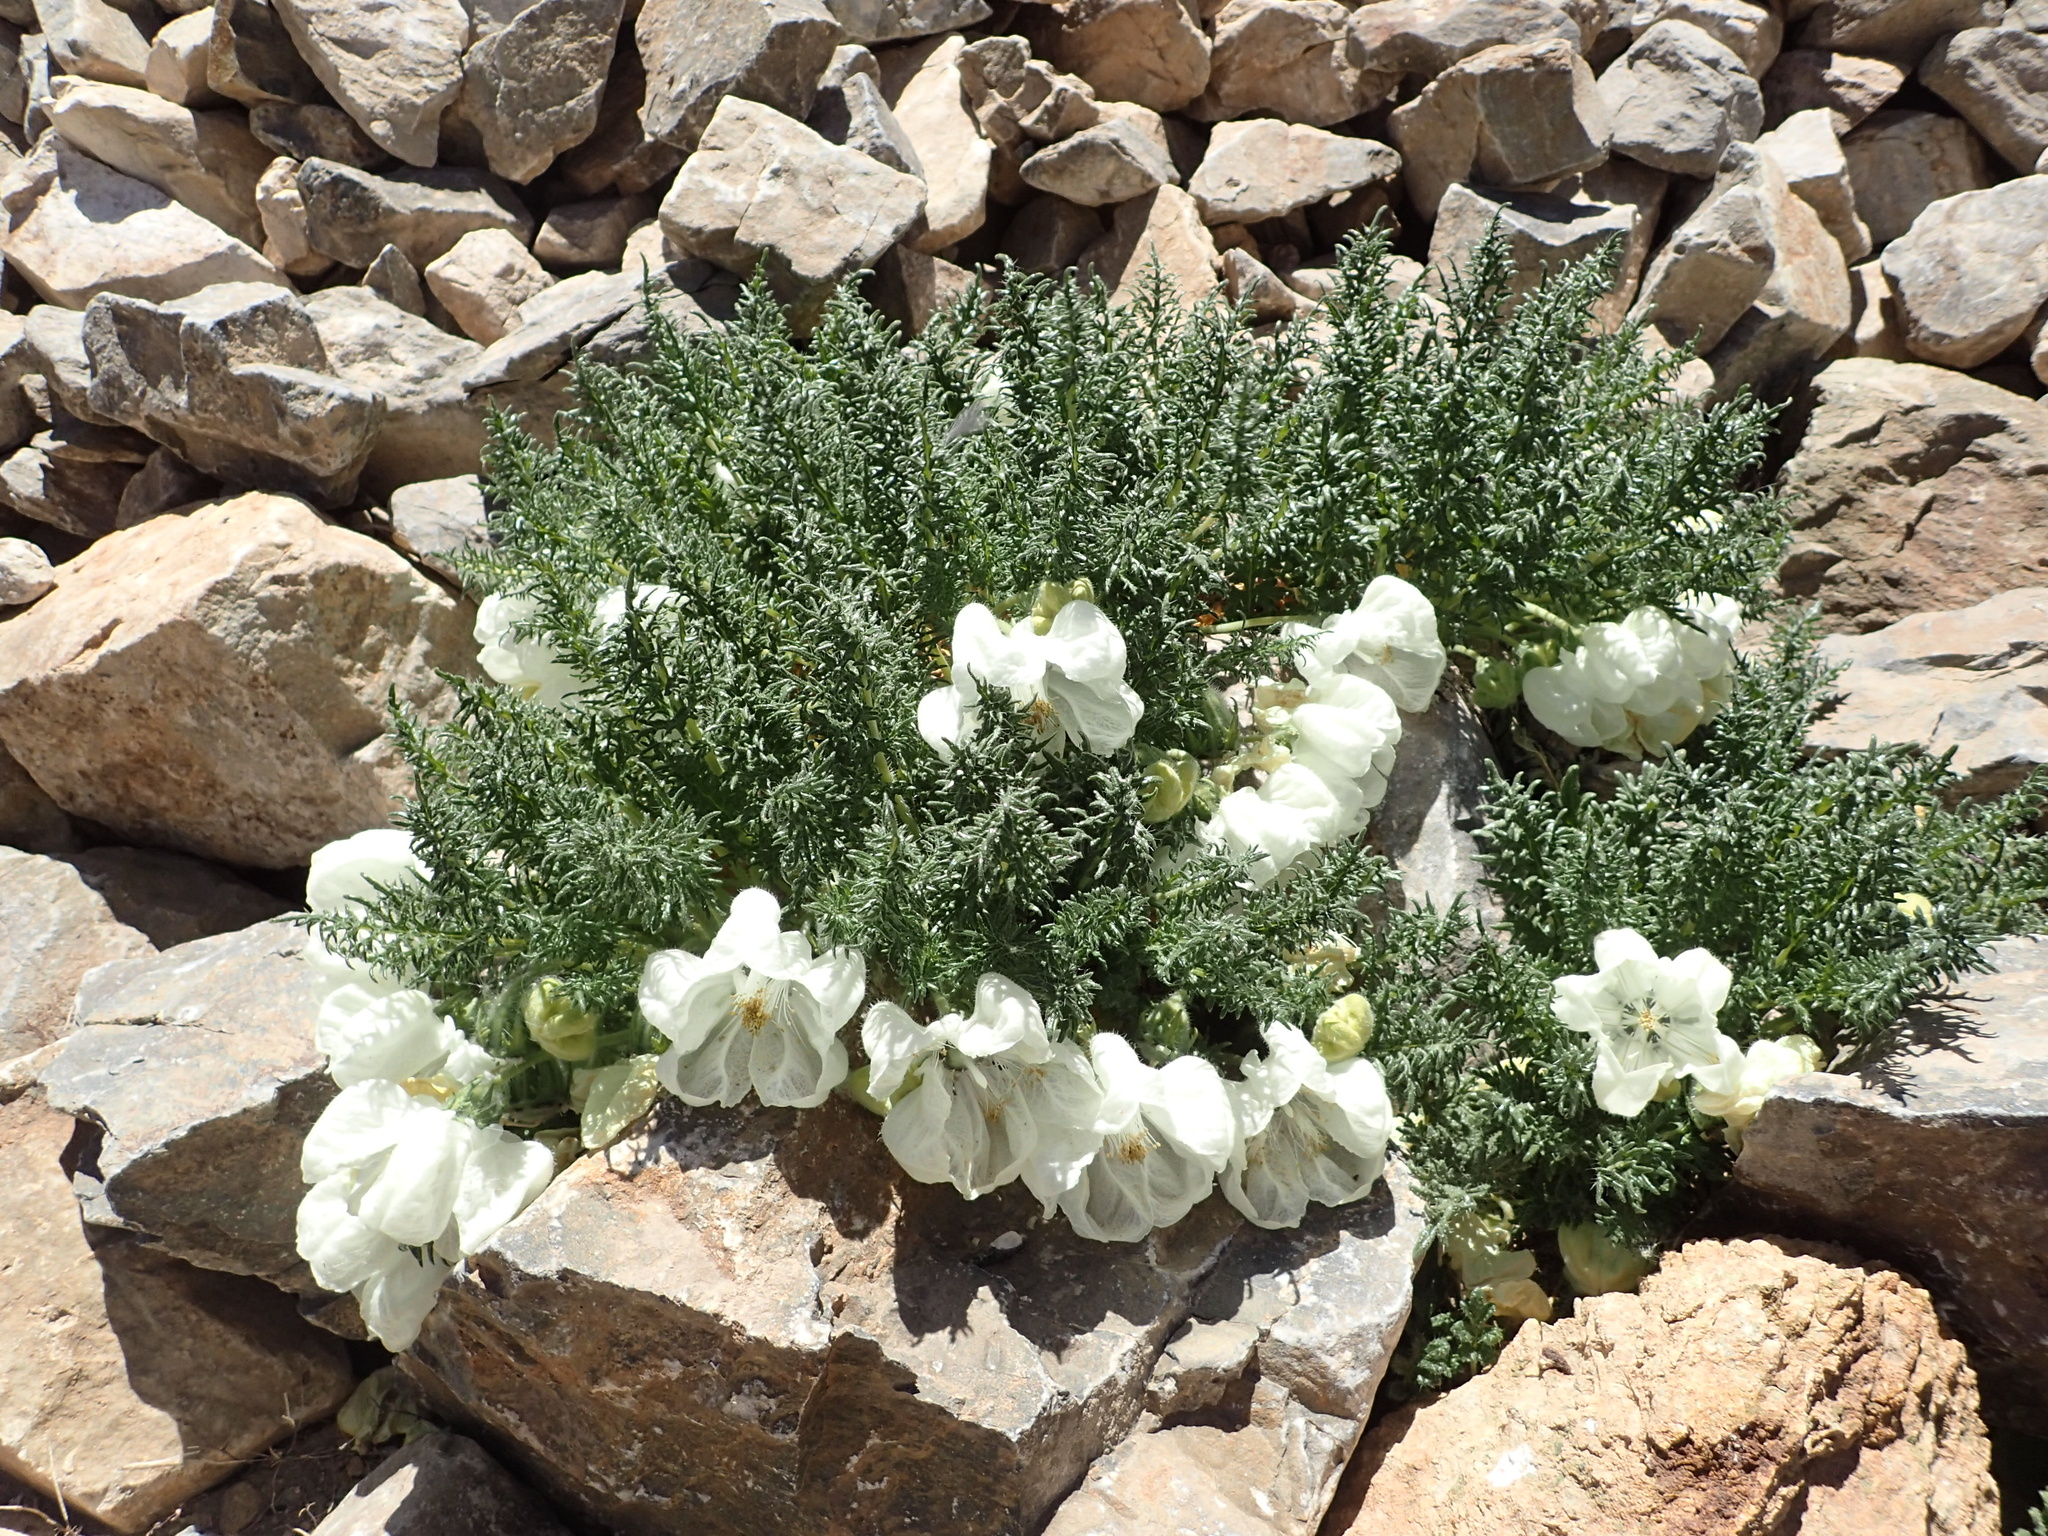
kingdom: Plantae
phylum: Tracheophyta
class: Magnoliopsida
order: Cornales
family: Loasaceae
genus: Caiophora
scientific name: Caiophora coronata
